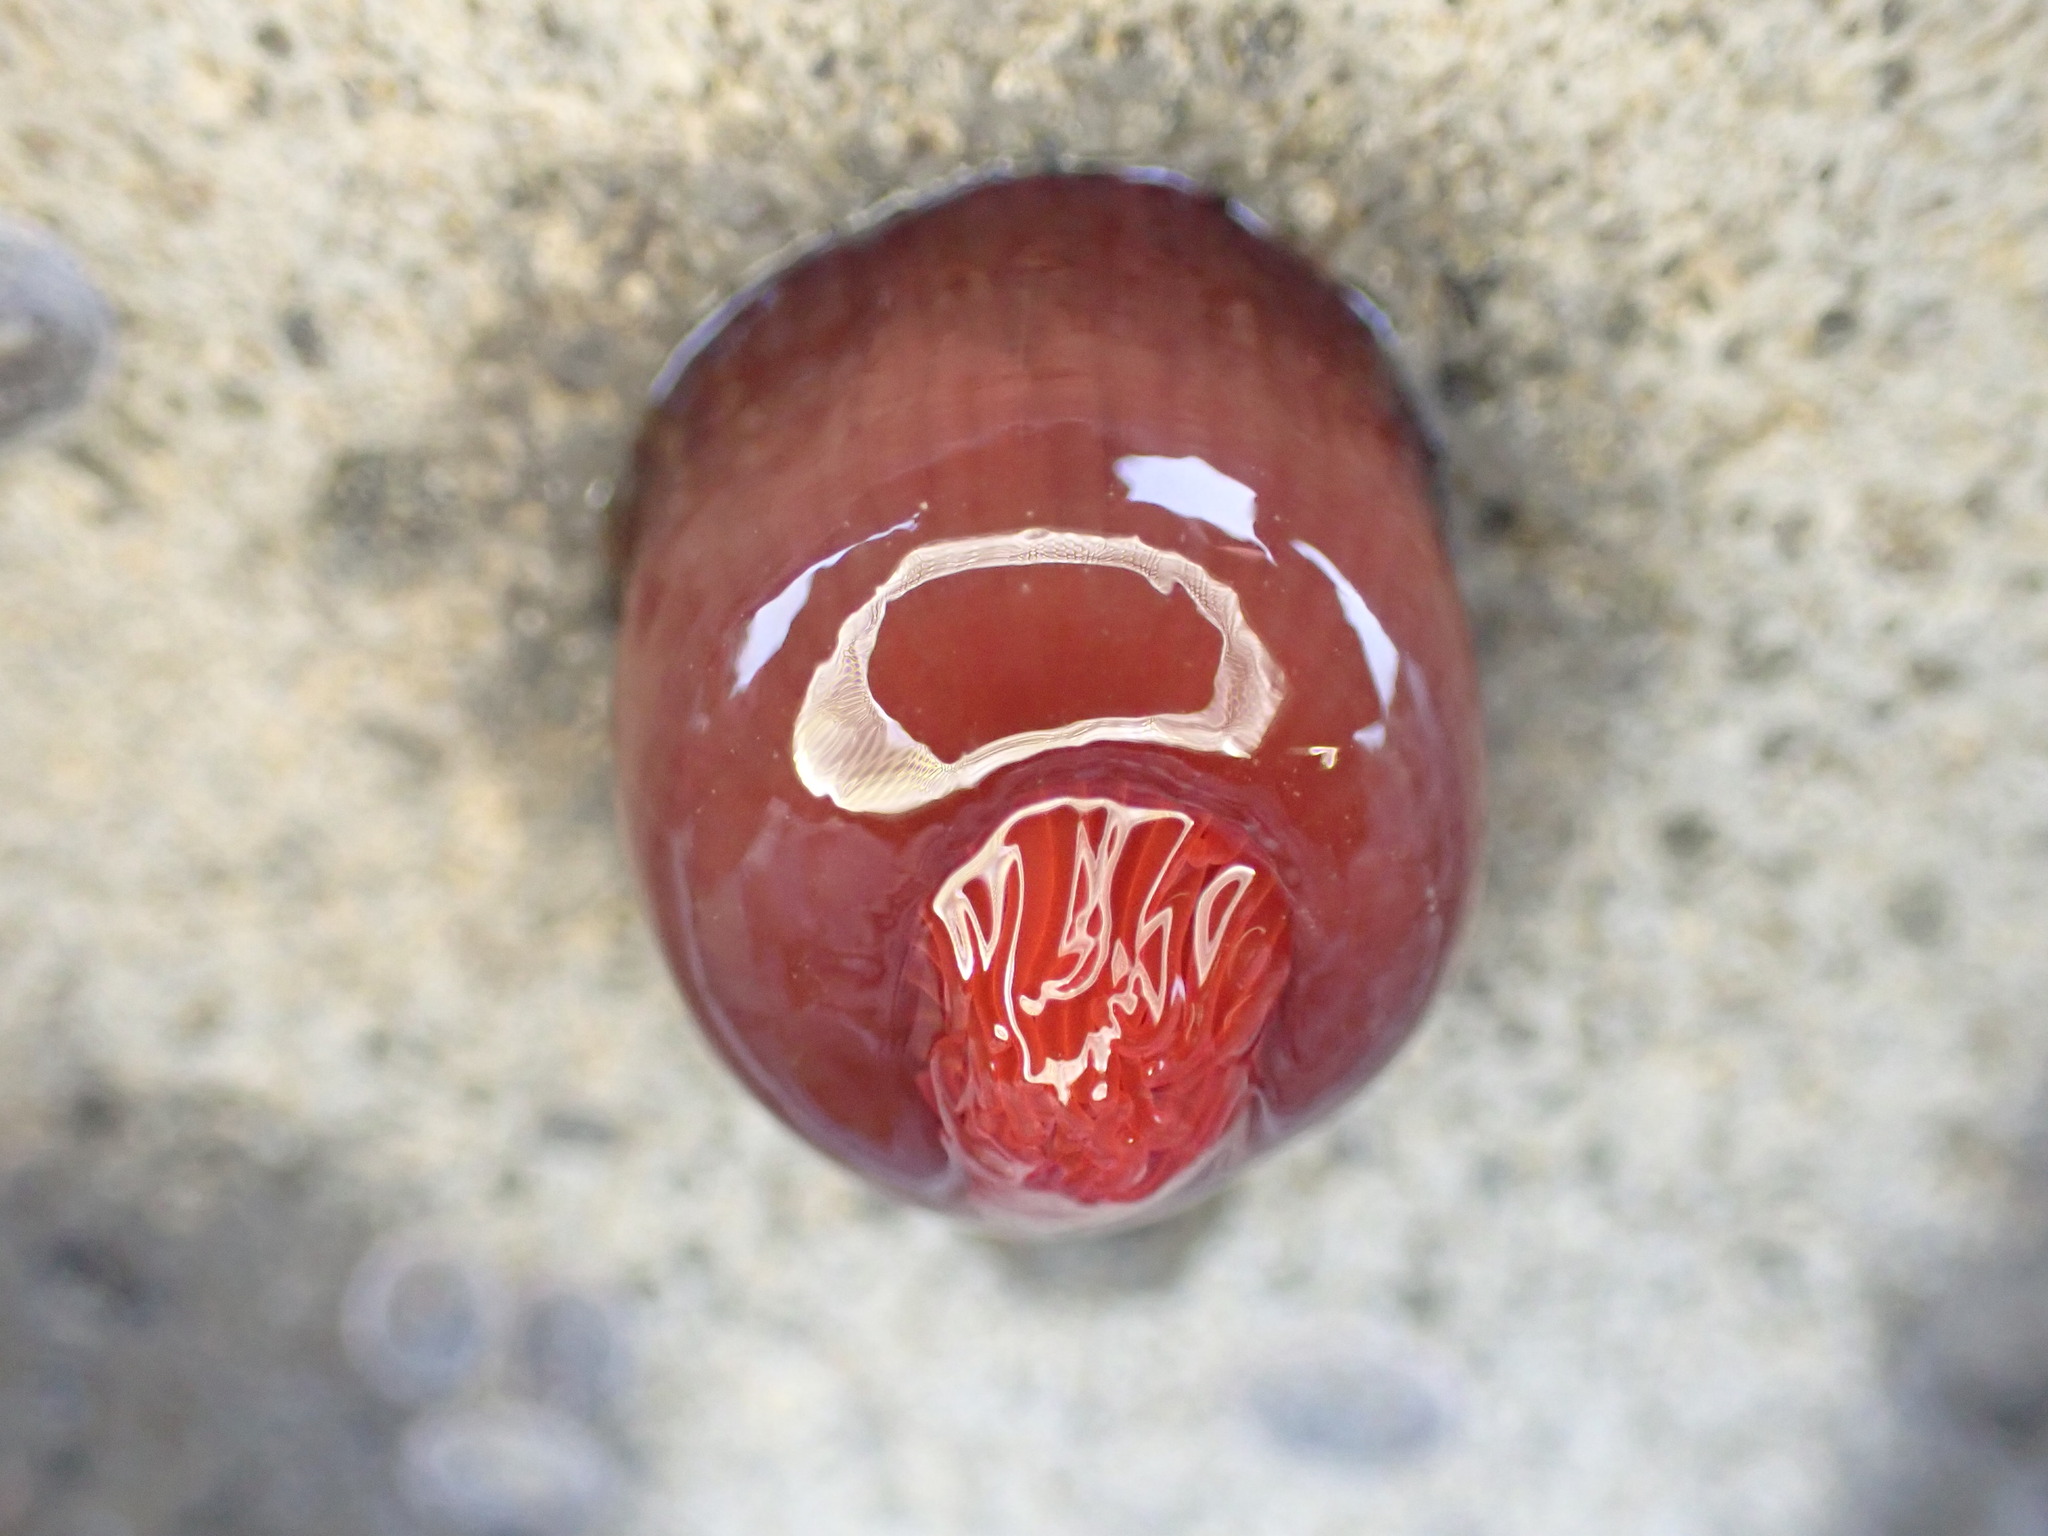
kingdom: Animalia
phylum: Cnidaria
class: Anthozoa
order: Actiniaria
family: Actiniidae
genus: Actinia
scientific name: Actinia tenebrosa
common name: Waratah anemone
